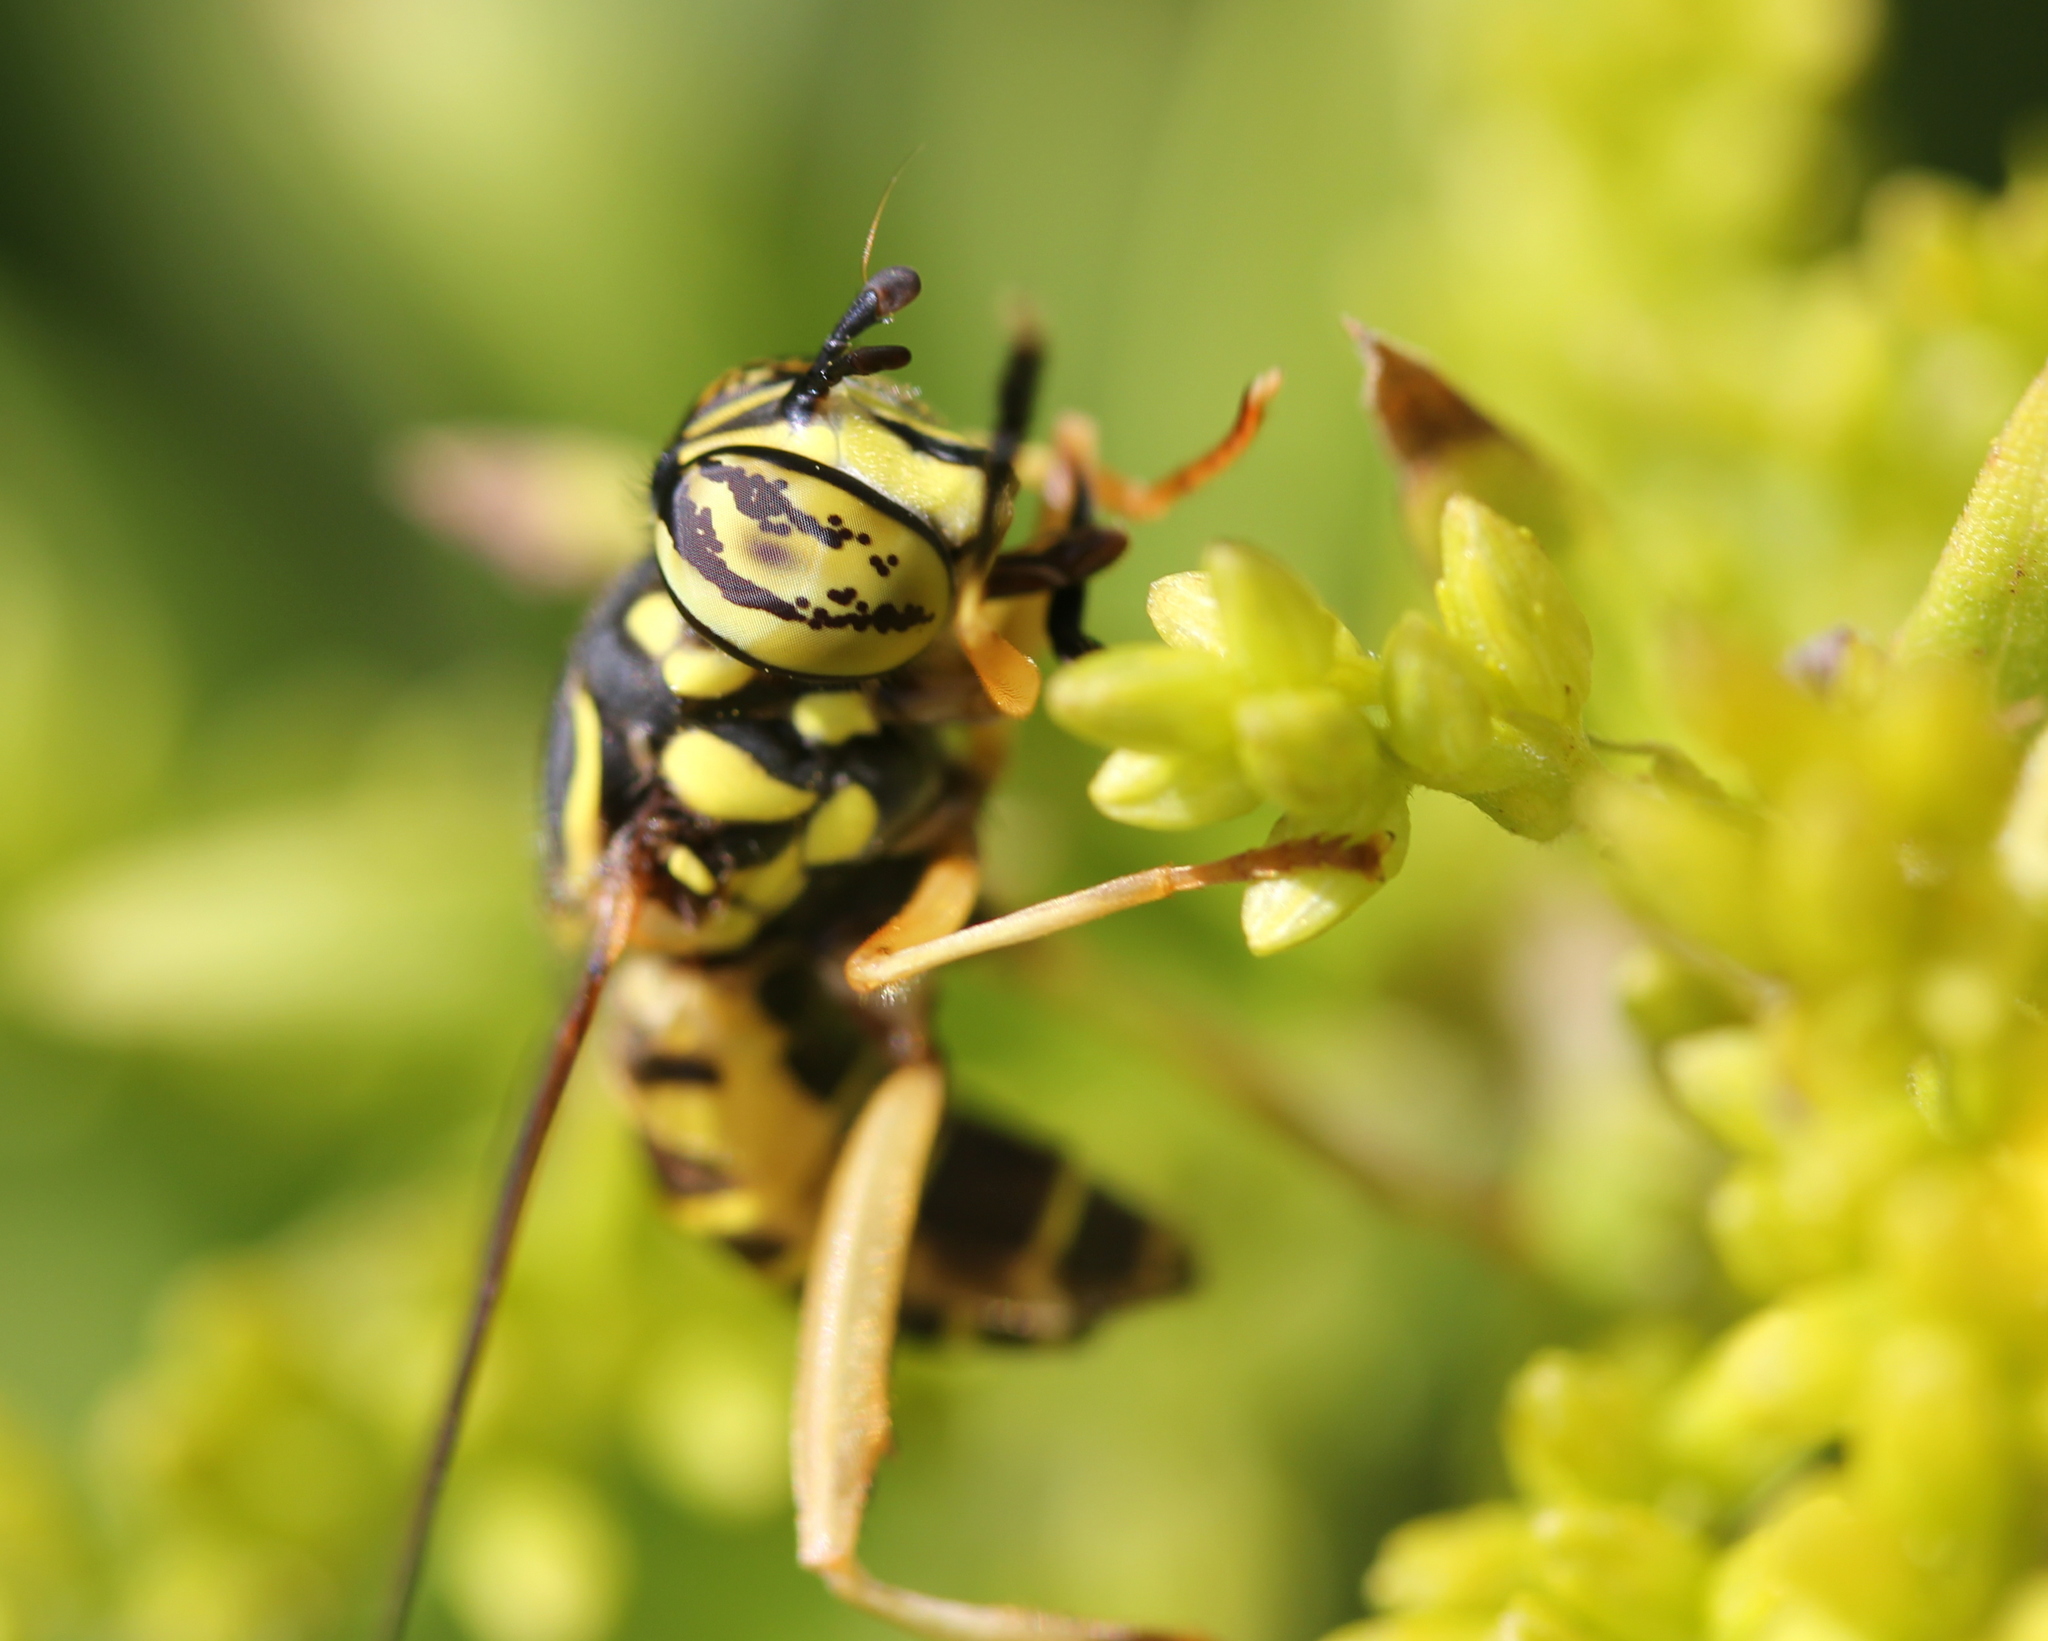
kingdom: Animalia
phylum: Arthropoda
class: Insecta
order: Diptera
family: Syrphidae
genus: Spilomyia
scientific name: Spilomyia longicornis
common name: Eastern hornet fly
